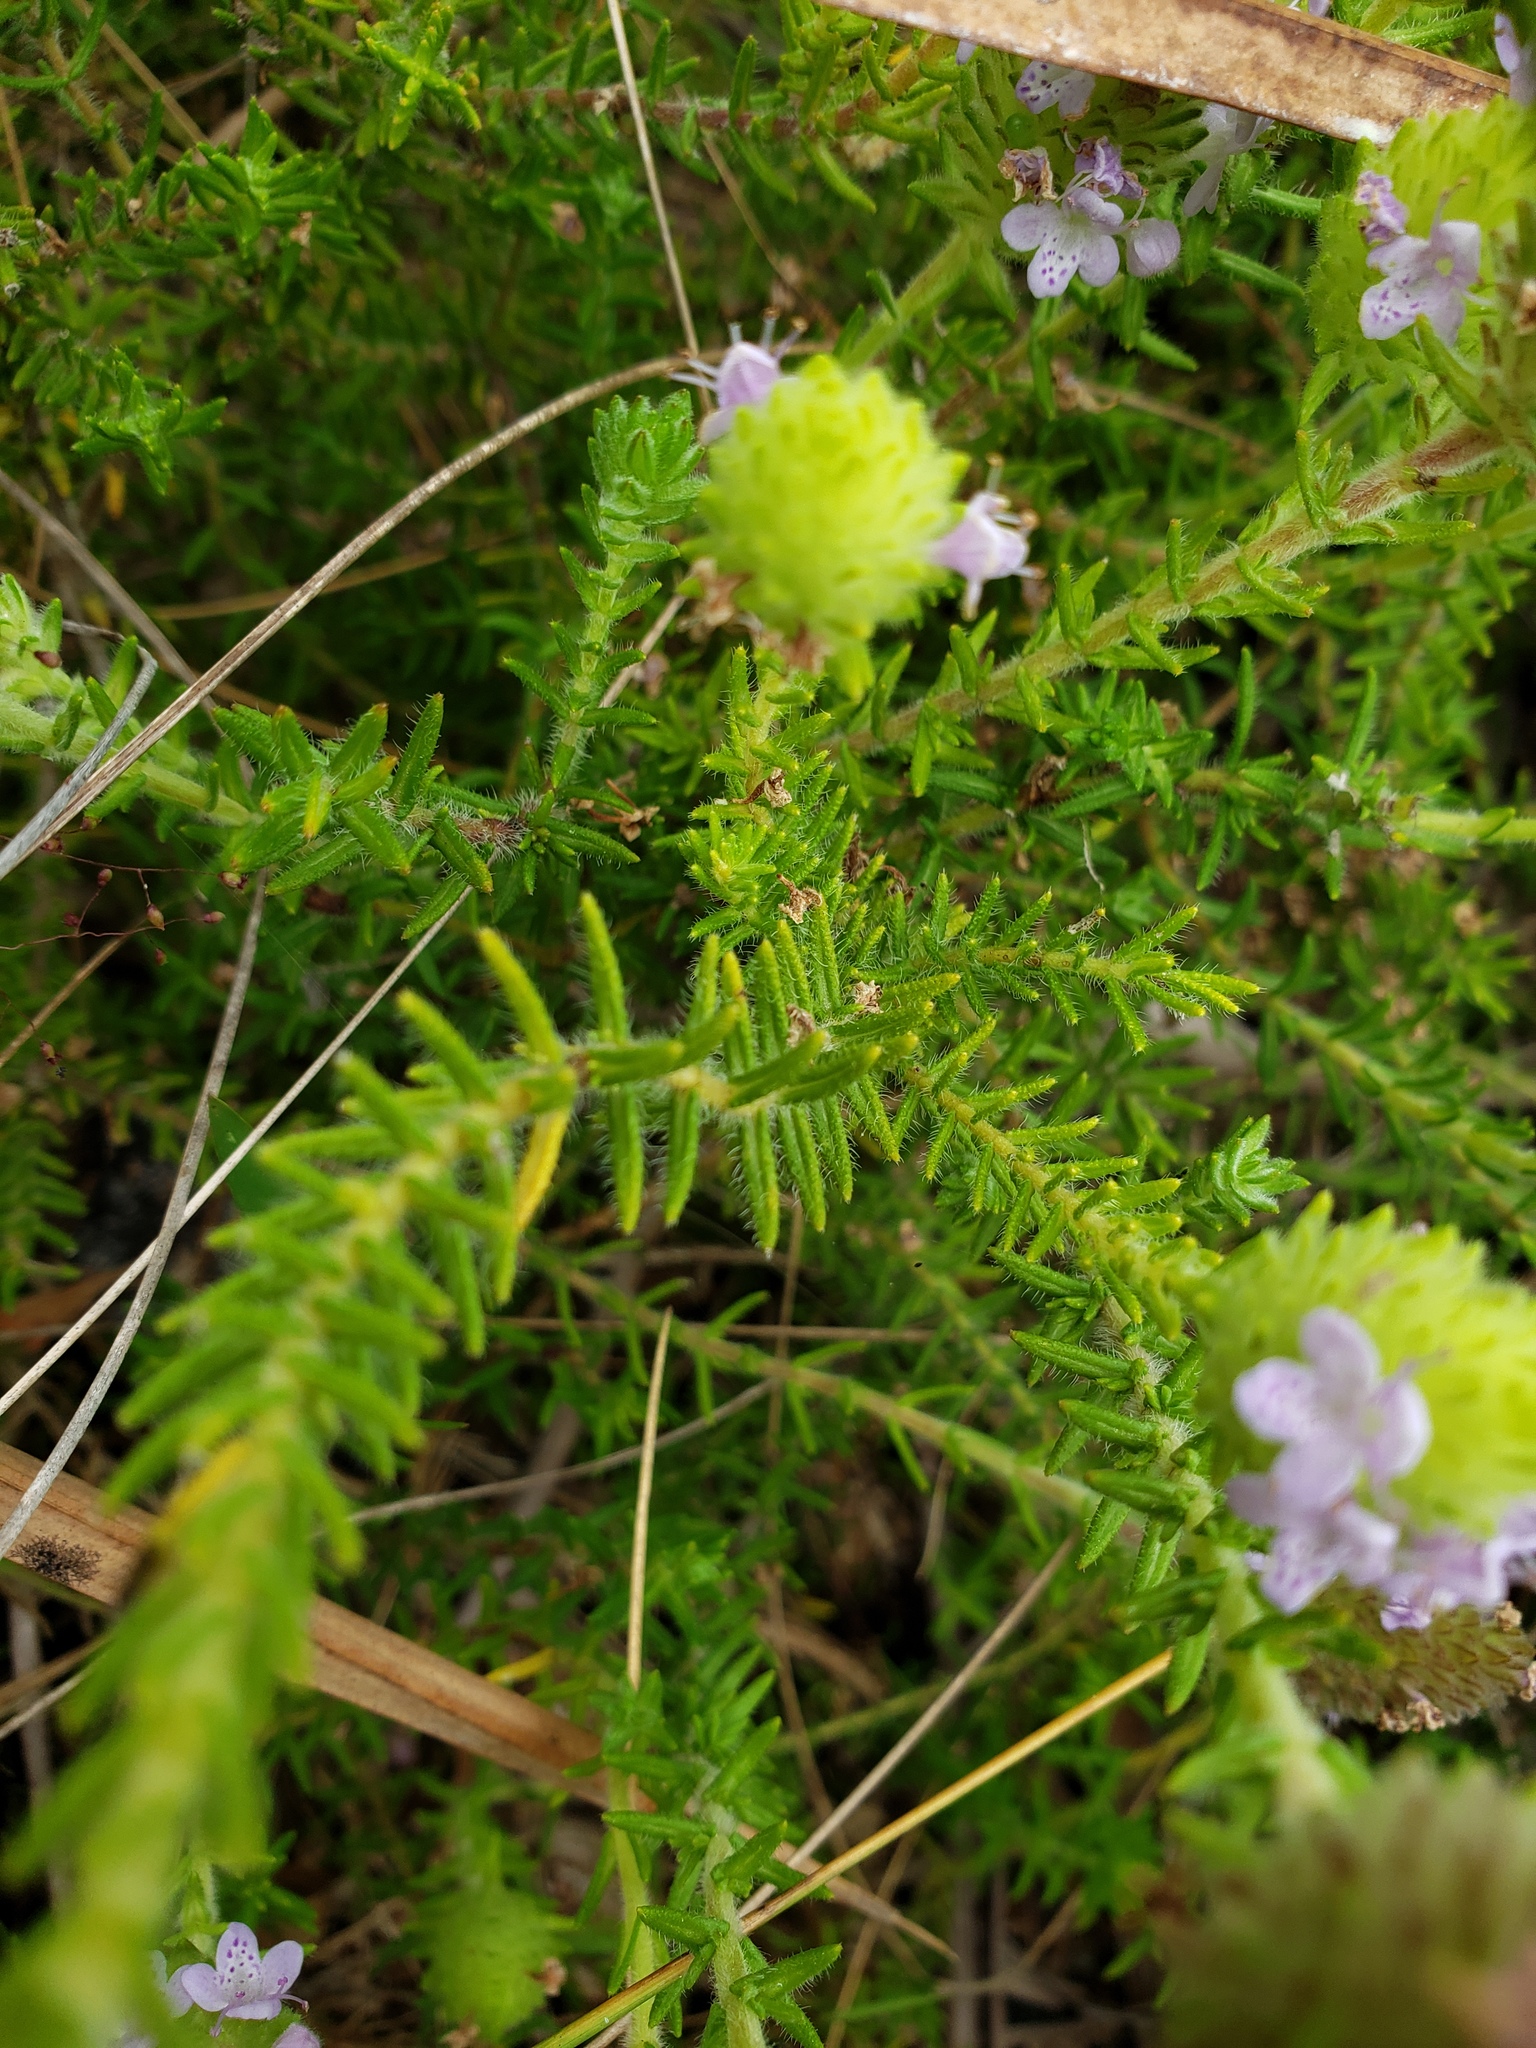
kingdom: Plantae
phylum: Tracheophyta
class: Magnoliopsida
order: Lamiales
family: Lamiaceae
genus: Piloblephis
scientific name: Piloblephis rigida
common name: Wild pennyroyal
